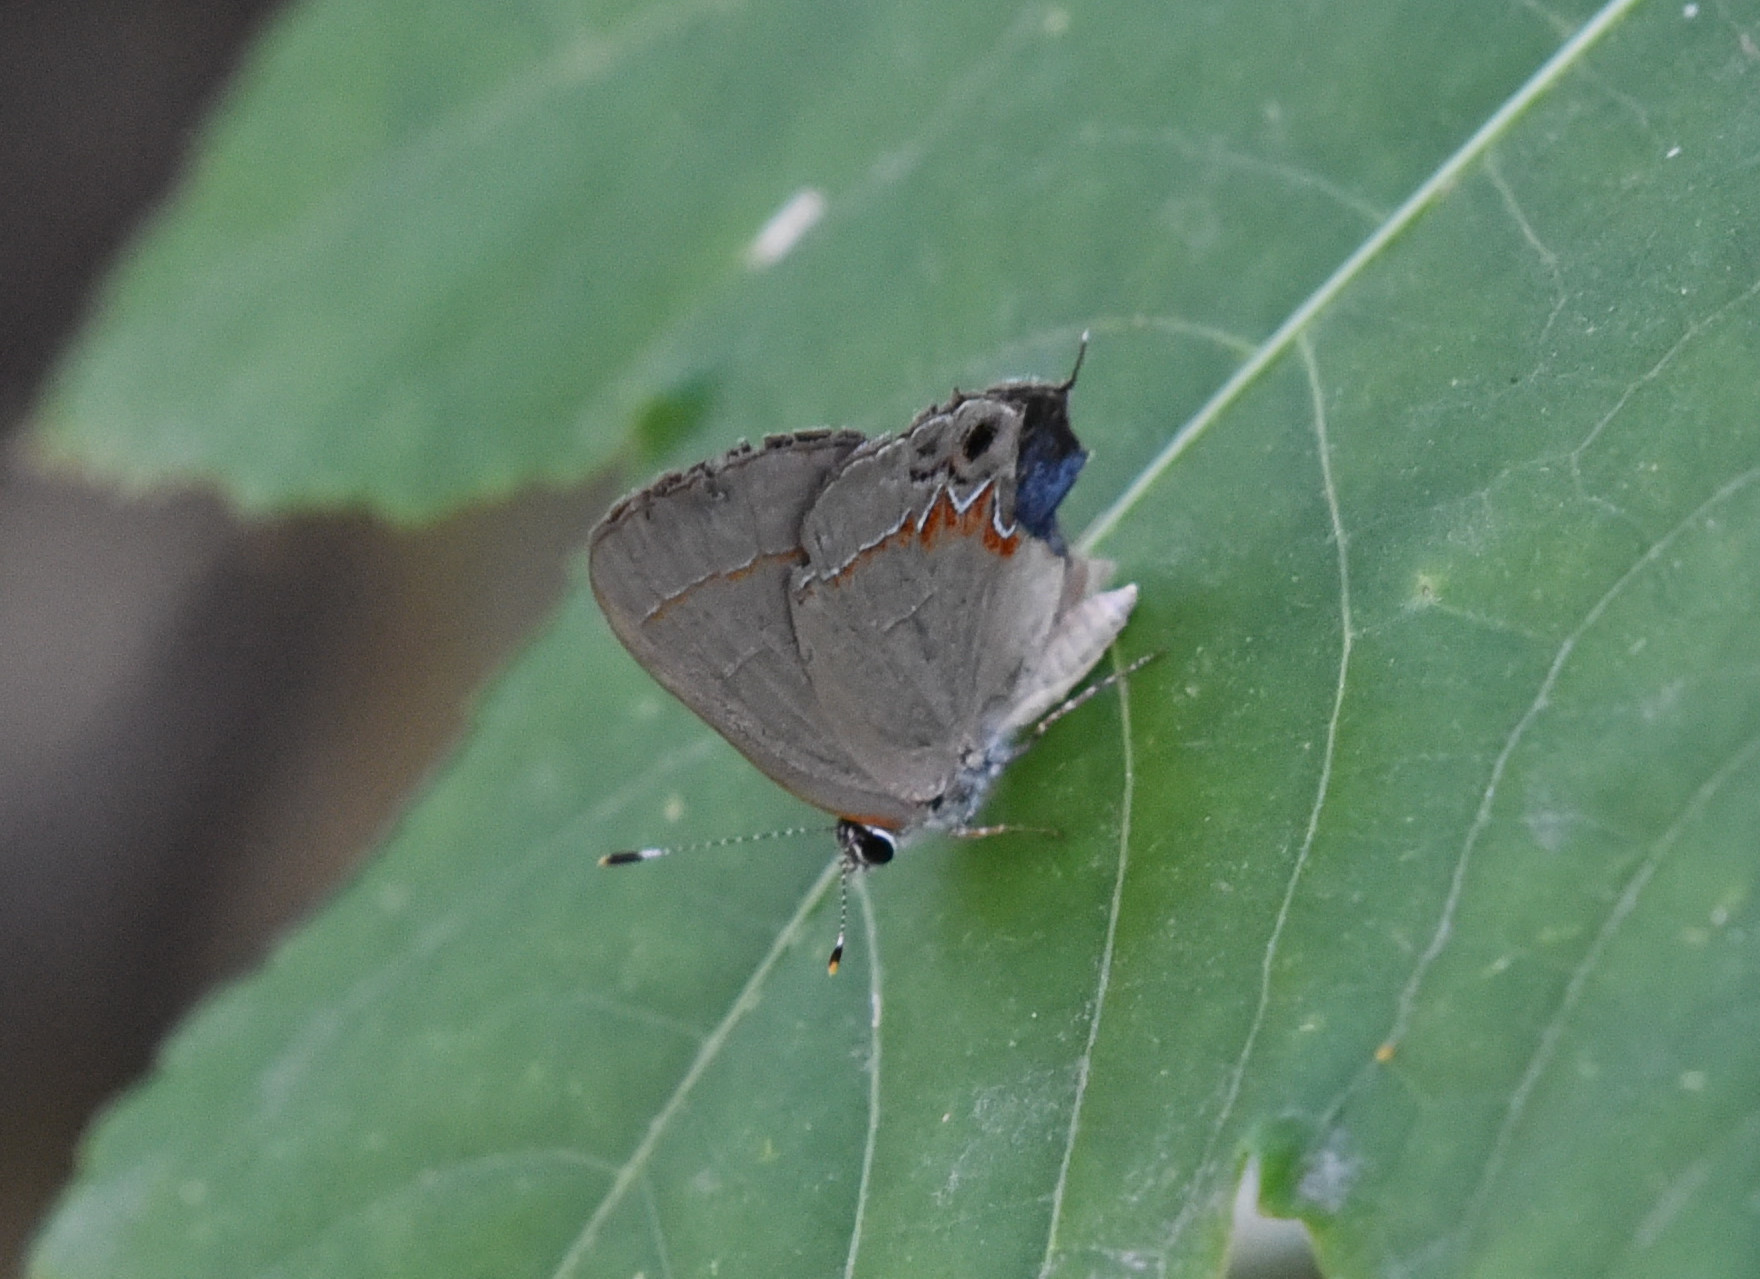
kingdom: Animalia
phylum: Arthropoda
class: Insecta
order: Lepidoptera
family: Lycaenidae
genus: Calycopis
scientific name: Calycopis isobeon
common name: Dusky-blue groundstreak
